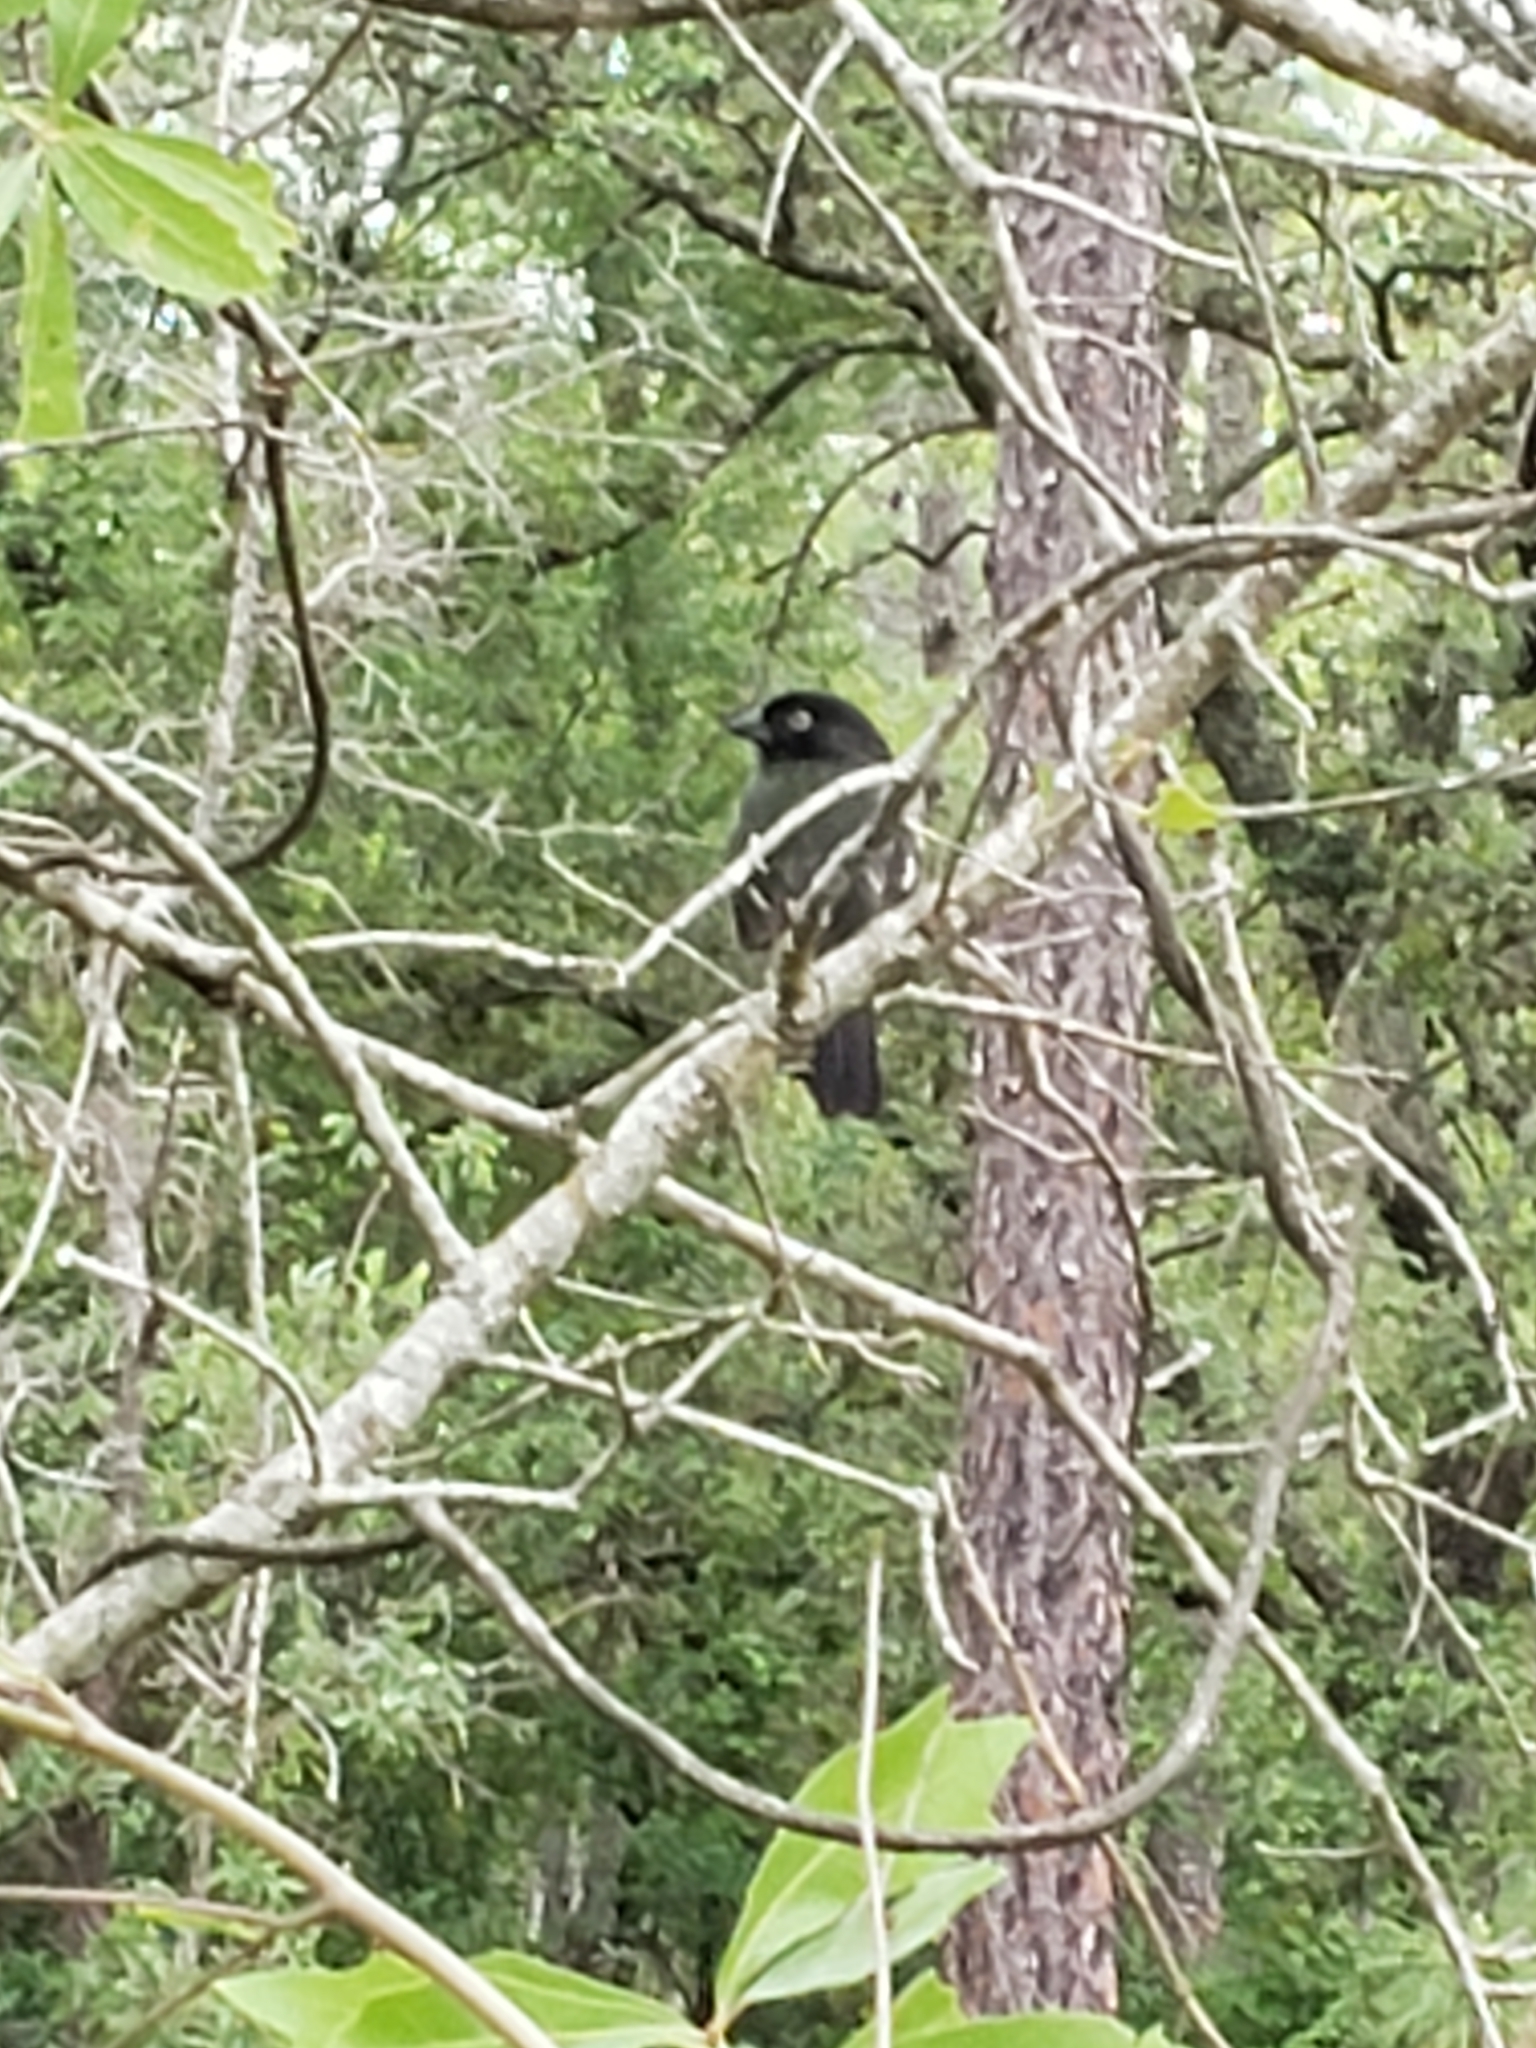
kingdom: Animalia
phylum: Chordata
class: Aves
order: Passeriformes
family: Passerellidae
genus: Pipilo
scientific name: Pipilo erythrophthalmus
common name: Eastern towhee
